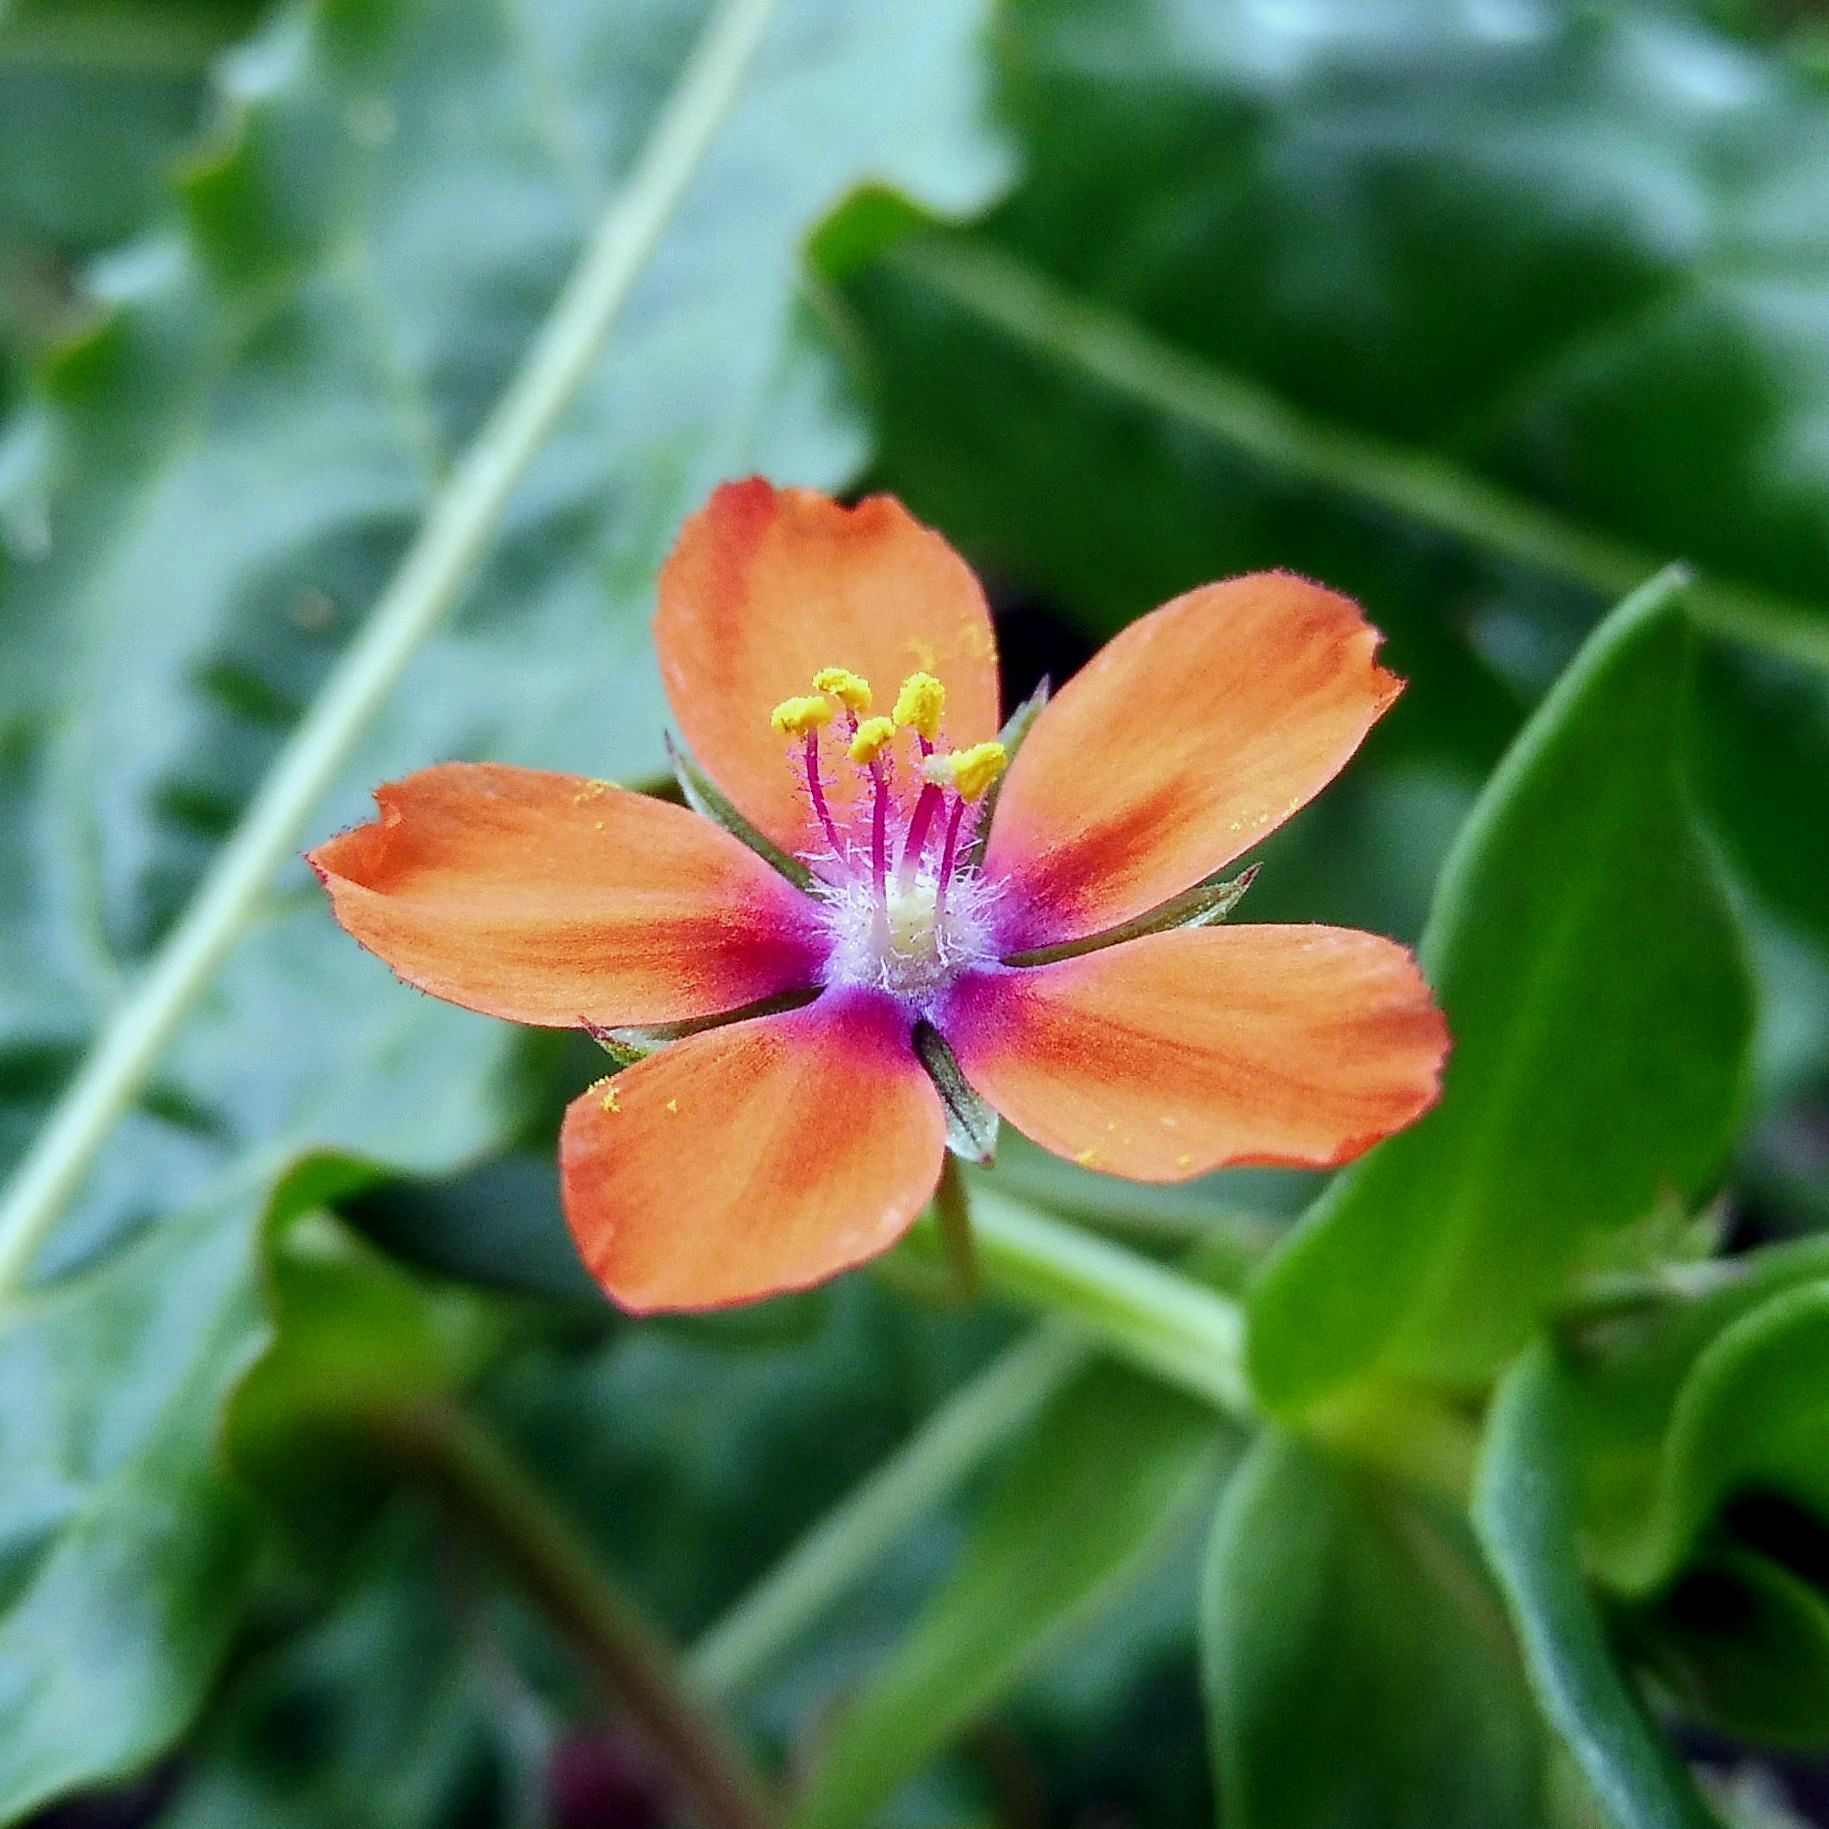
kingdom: Plantae
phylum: Tracheophyta
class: Magnoliopsida
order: Ericales
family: Primulaceae
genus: Lysimachia
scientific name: Lysimachia arvensis
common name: Scarlet pimpernel
